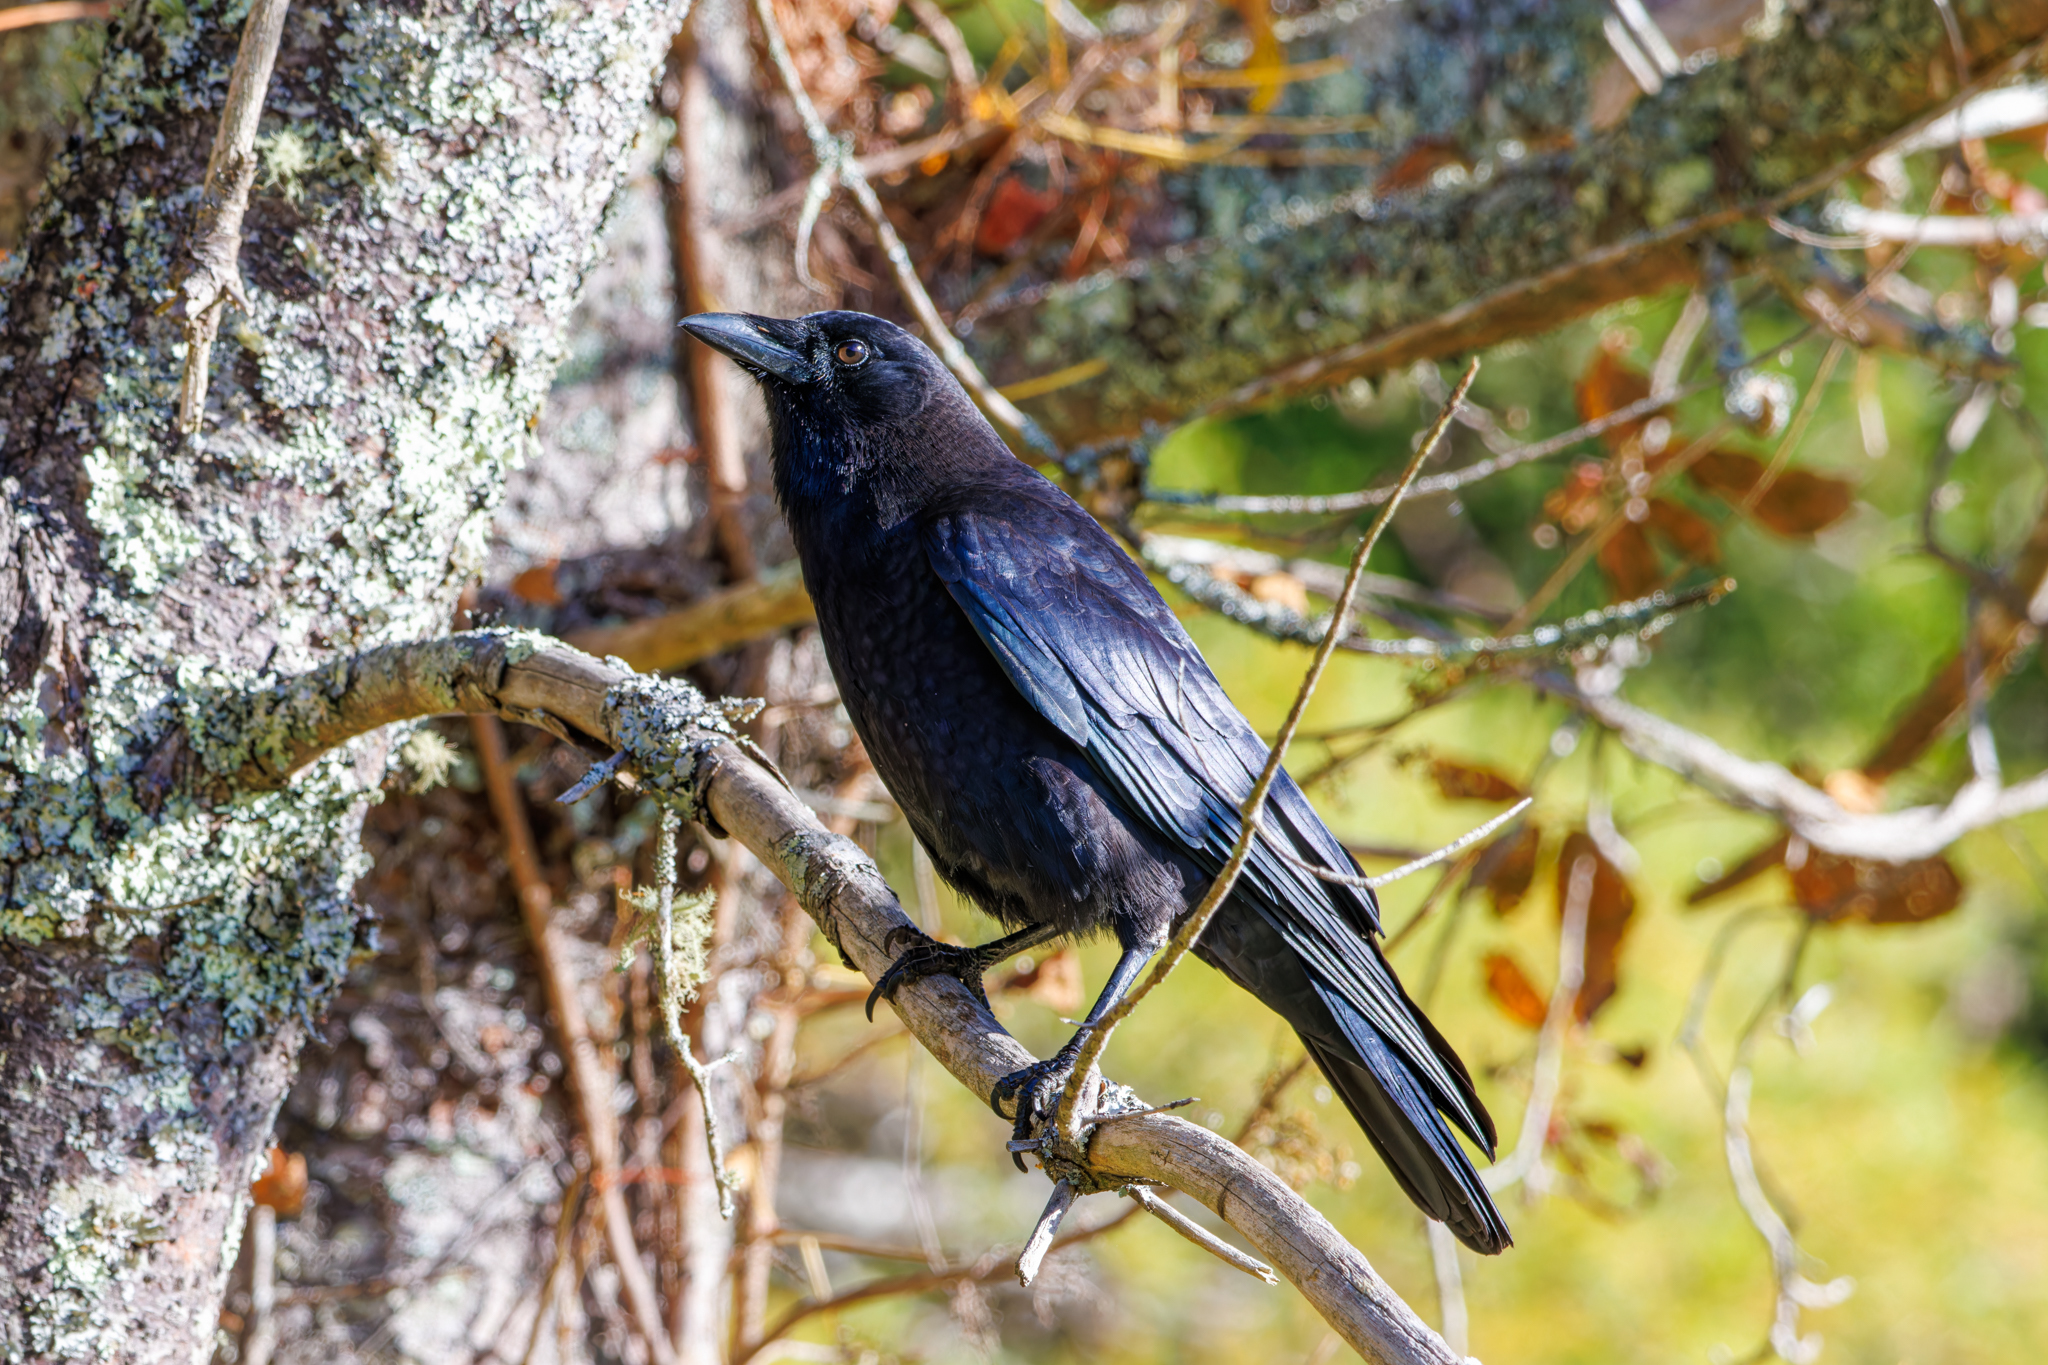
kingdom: Animalia
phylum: Chordata
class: Aves
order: Passeriformes
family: Corvidae
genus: Corvus
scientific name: Corvus brachyrhynchos
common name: American crow
